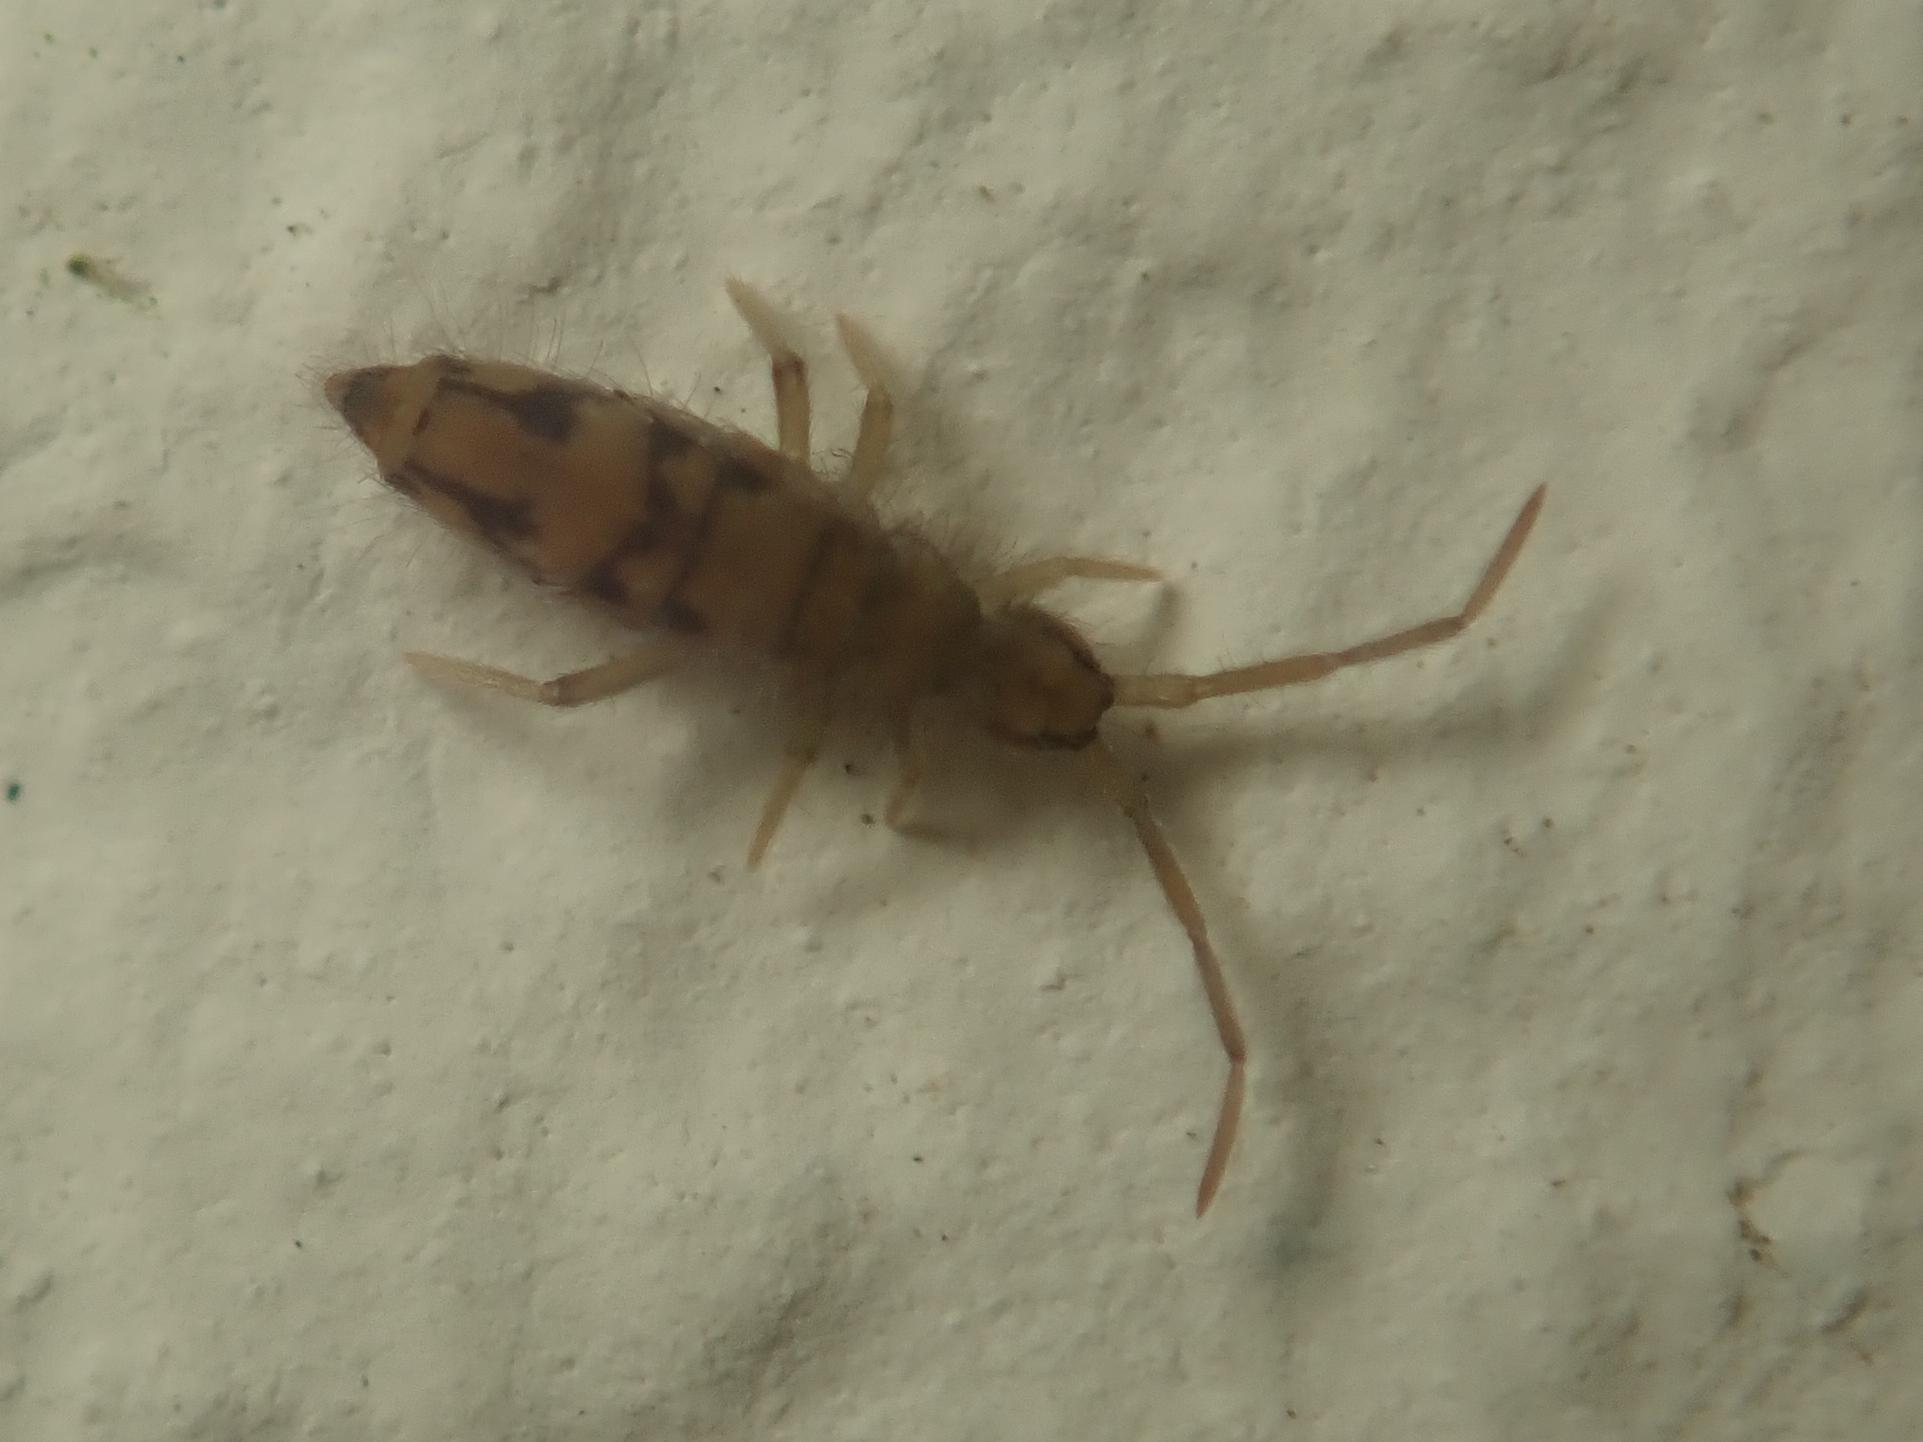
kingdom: Animalia
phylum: Arthropoda
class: Collembola
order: Entomobryomorpha
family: Entomobryidae
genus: Entomobrya
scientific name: Entomobrya nivalis
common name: Cosmopolitan springtail
